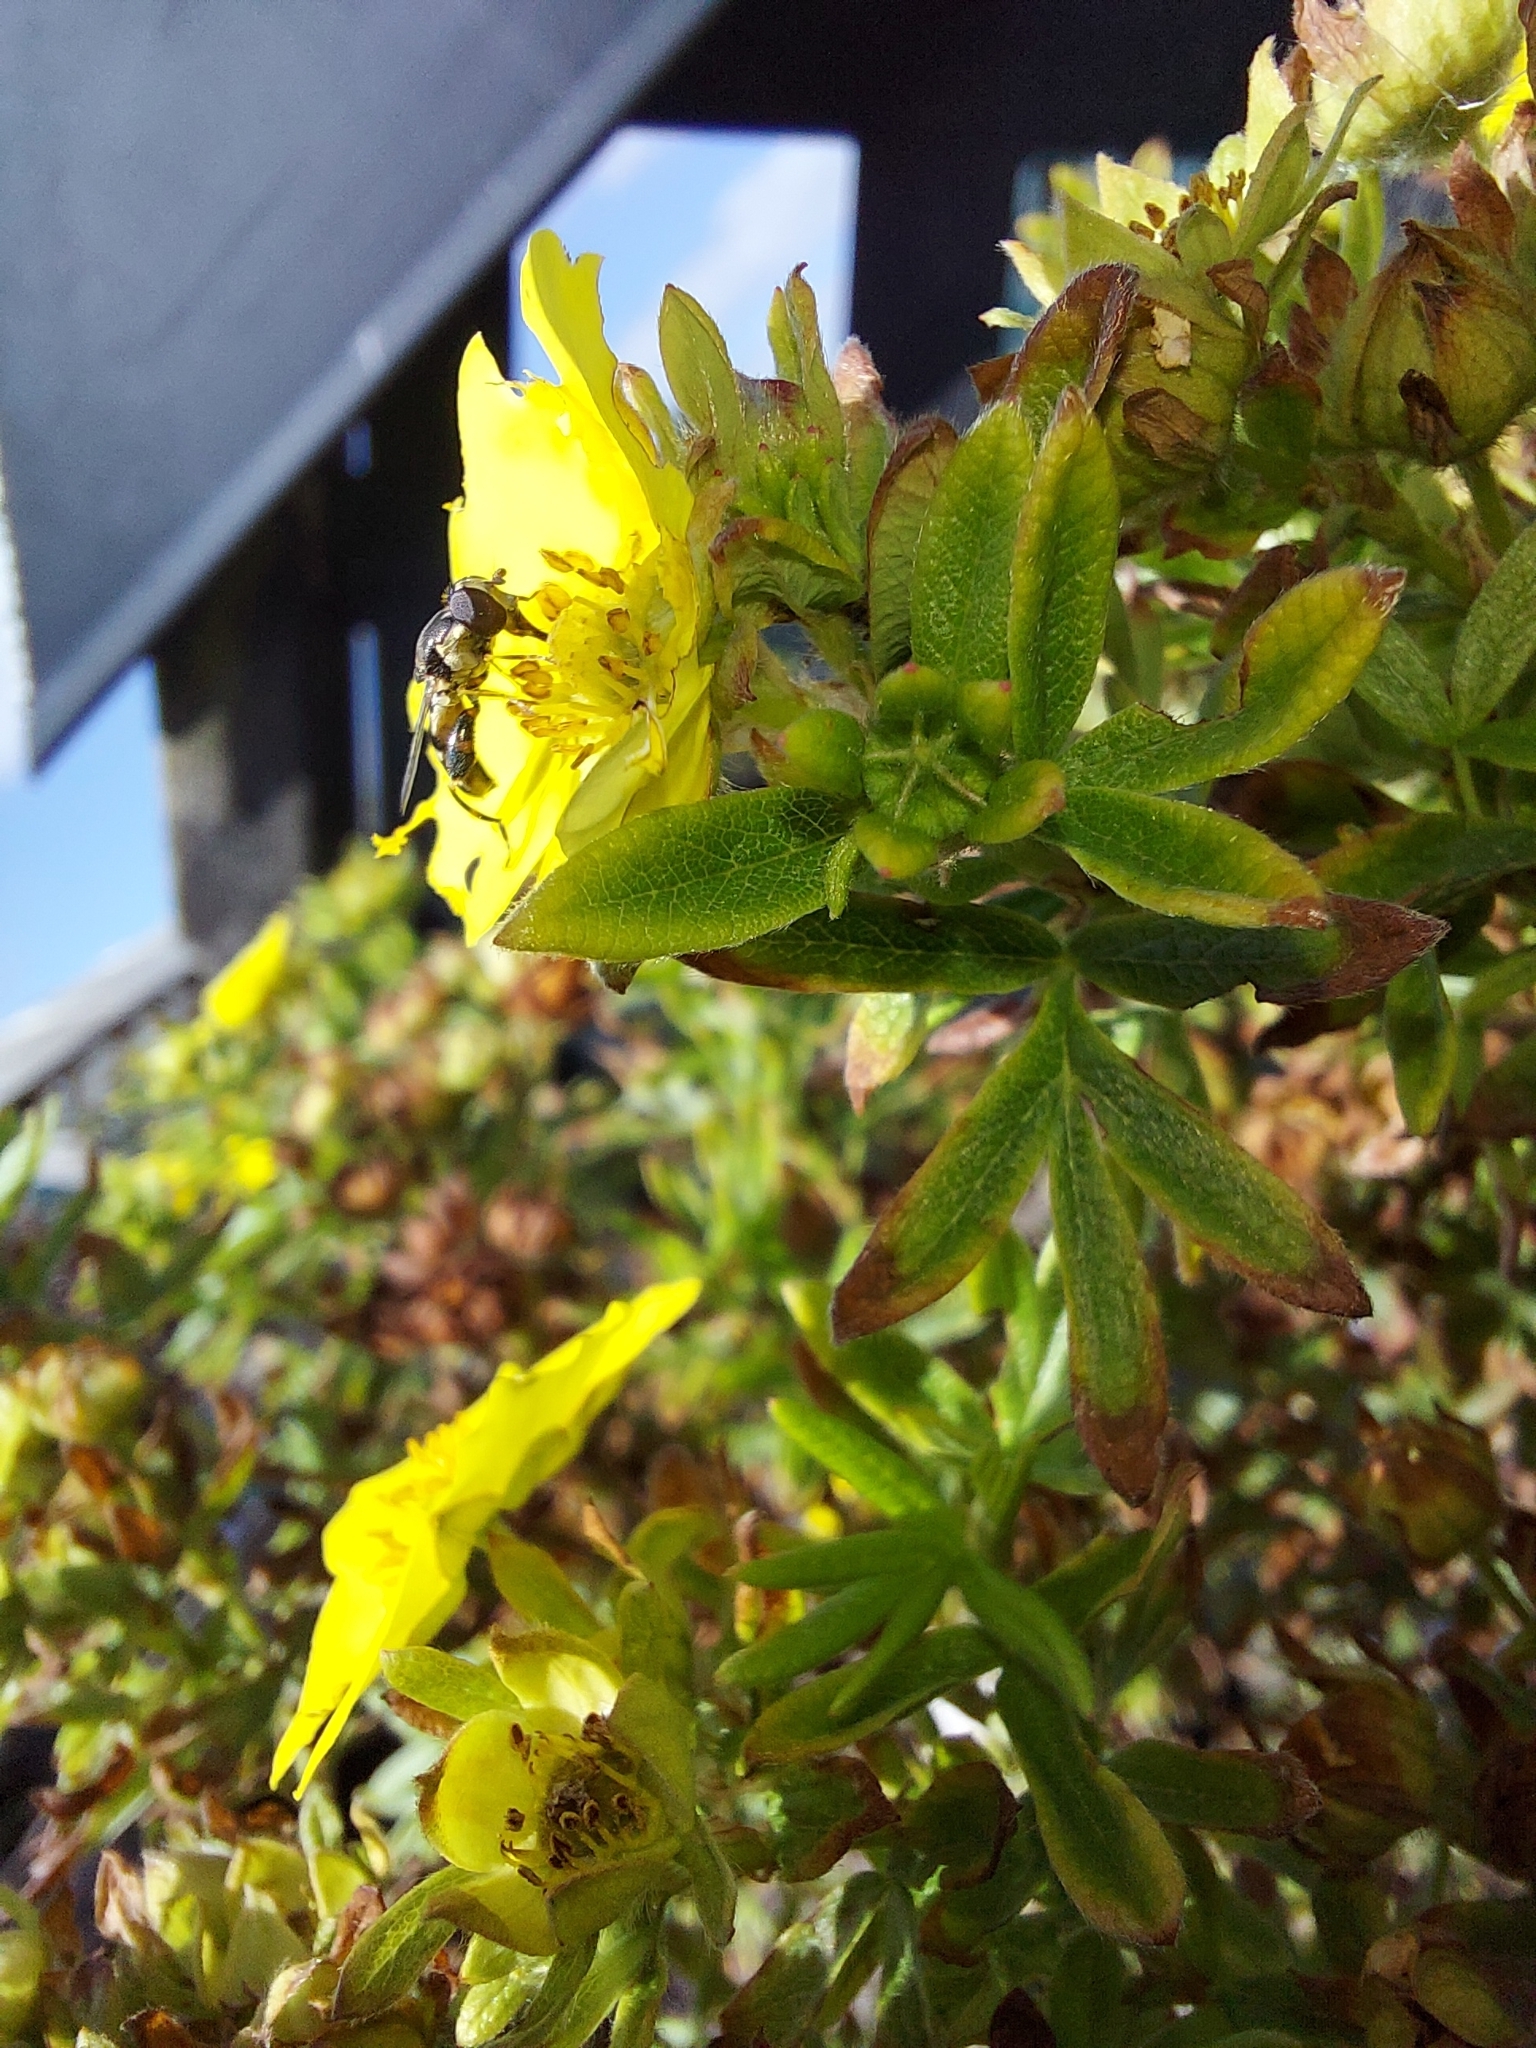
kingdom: Animalia
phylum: Arthropoda
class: Insecta
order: Diptera
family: Syrphidae
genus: Syritta
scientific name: Syritta pipiens
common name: Hover fly
